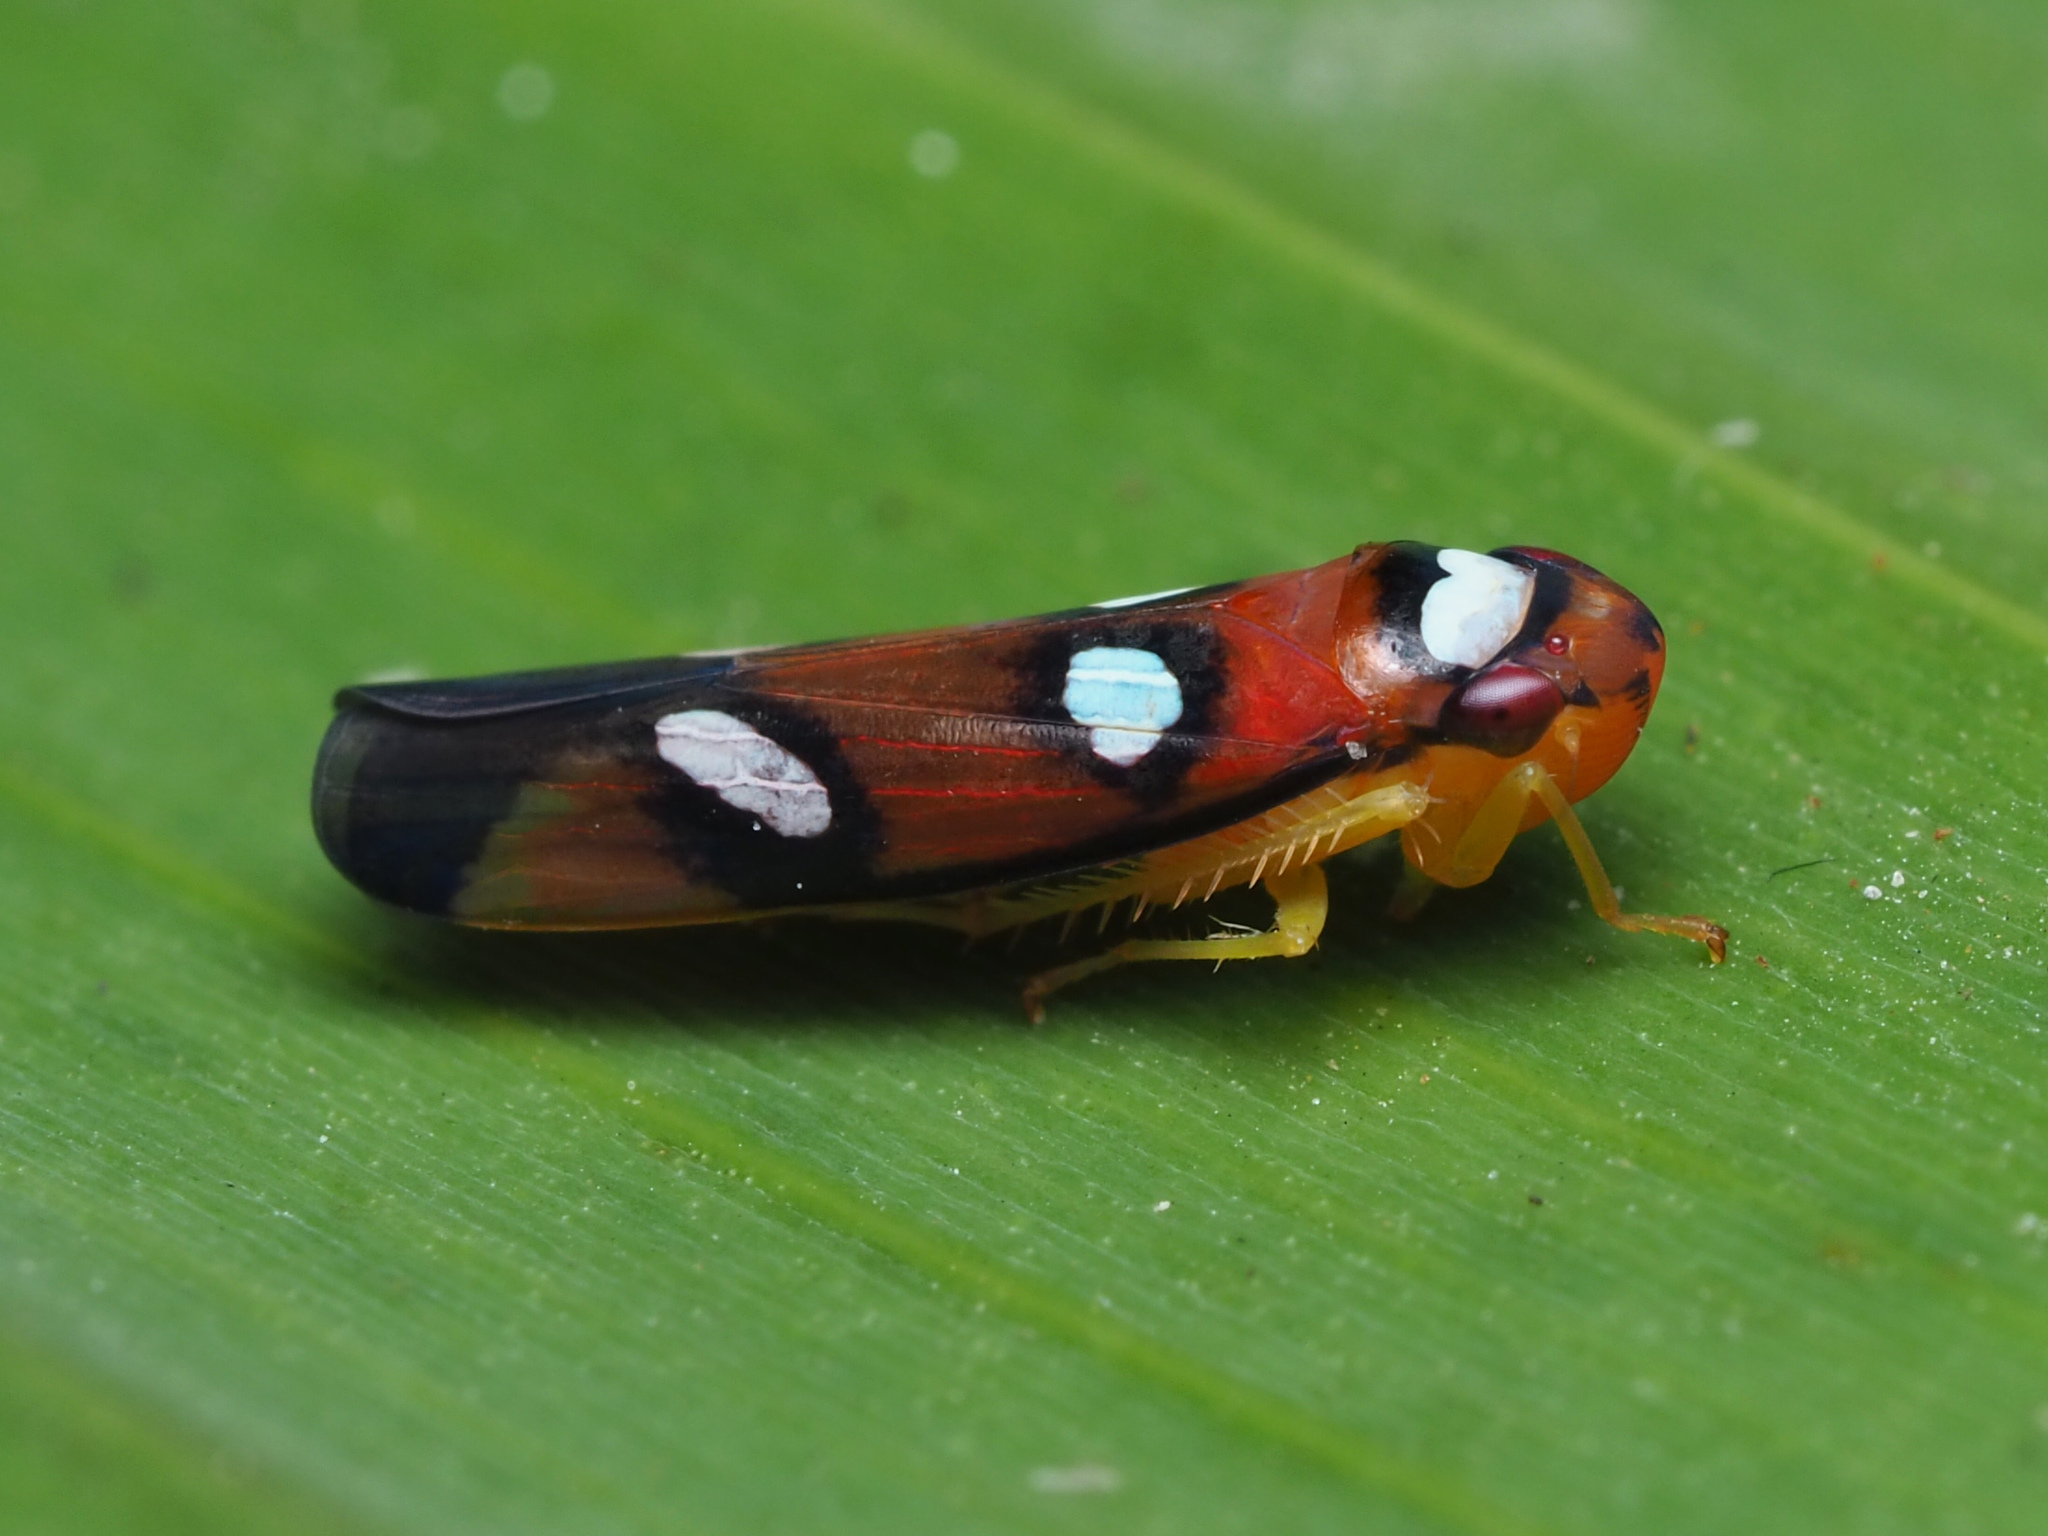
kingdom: Animalia
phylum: Arthropoda
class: Insecta
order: Hemiptera
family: Cicadellidae
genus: Erythrogonia
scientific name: Erythrogonia areolata
